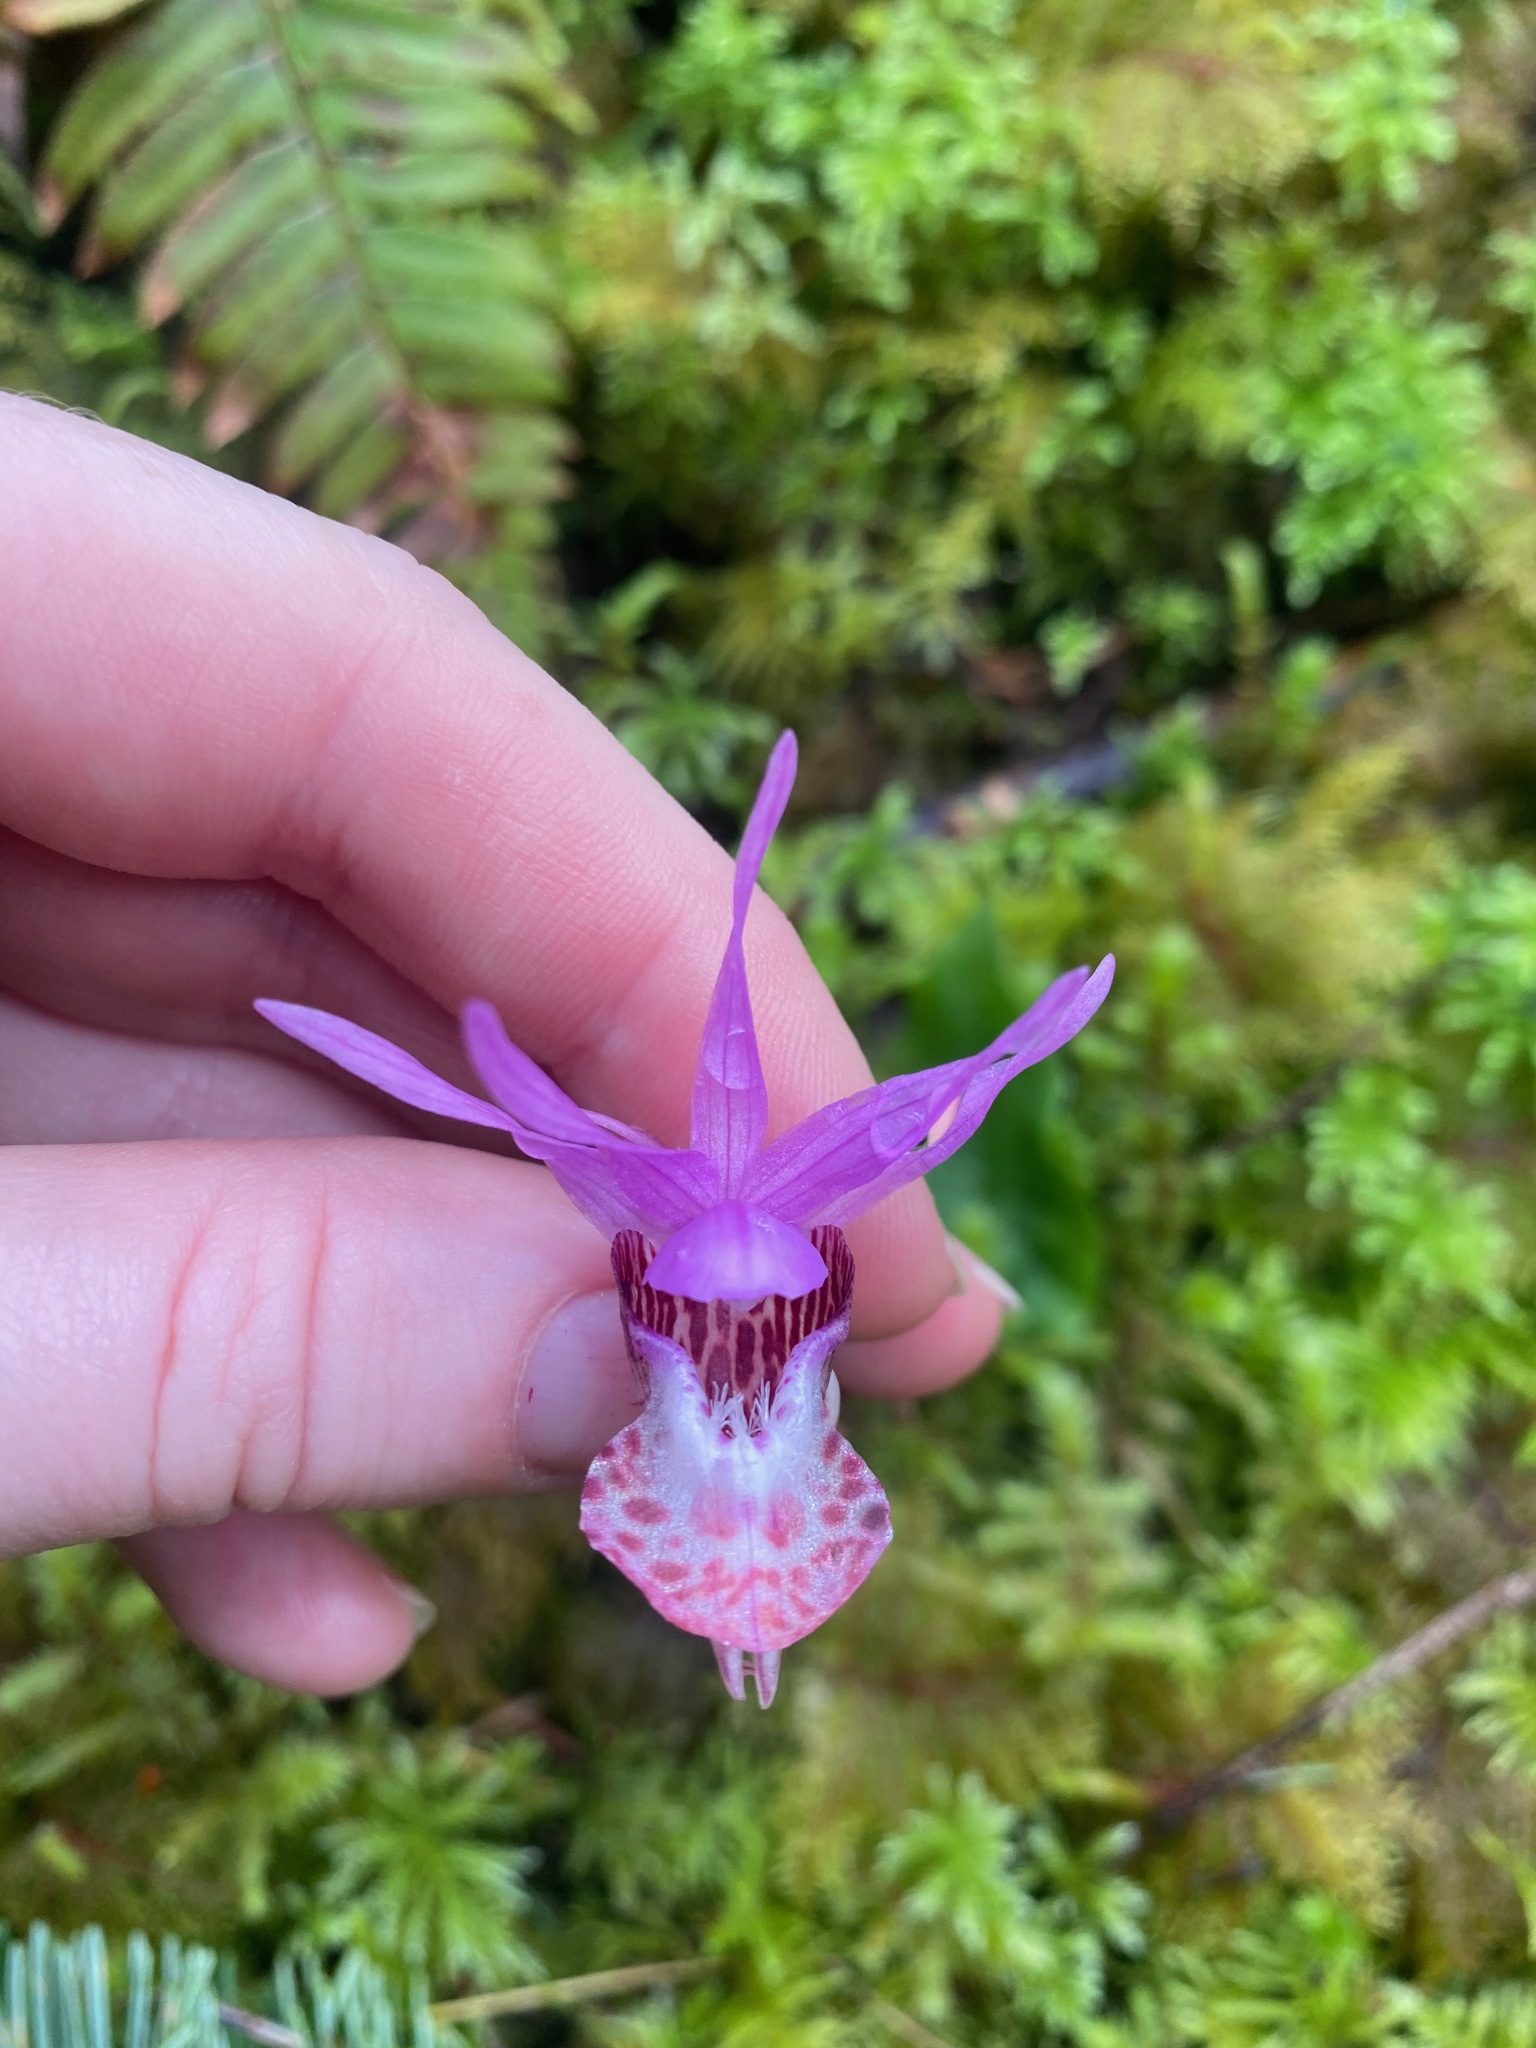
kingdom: Plantae
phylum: Tracheophyta
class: Liliopsida
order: Asparagales
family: Orchidaceae
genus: Calypso
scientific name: Calypso bulbosa
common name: Calypso
